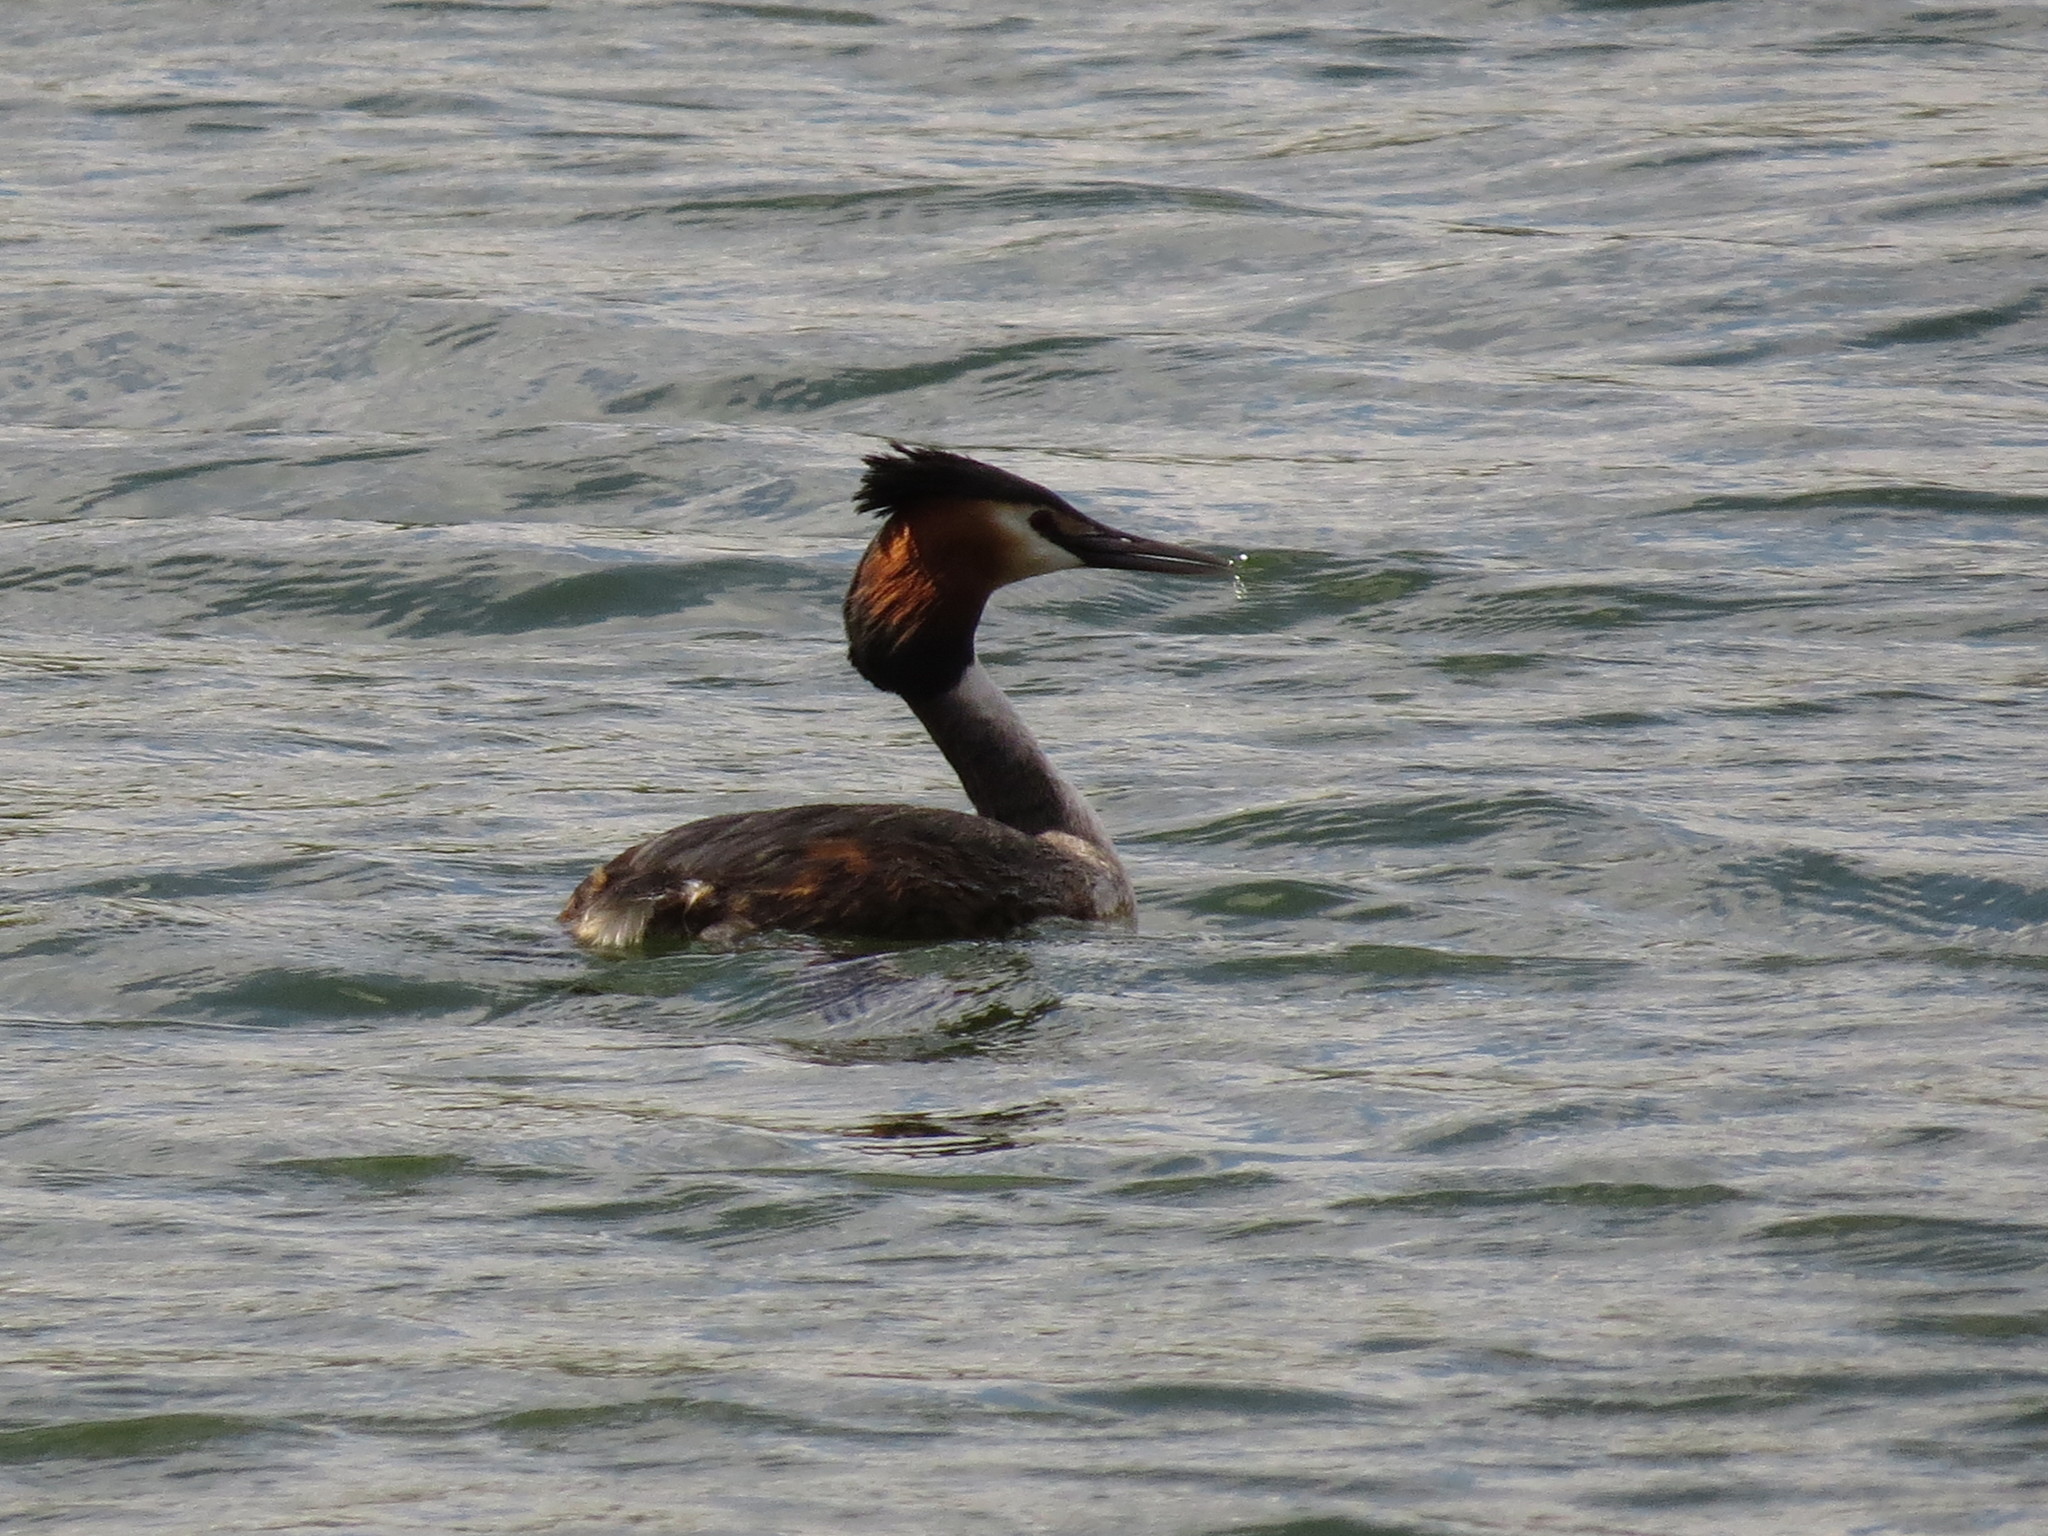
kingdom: Animalia
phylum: Chordata
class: Aves
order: Podicipediformes
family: Podicipedidae
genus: Podiceps
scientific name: Podiceps cristatus
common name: Great crested grebe
